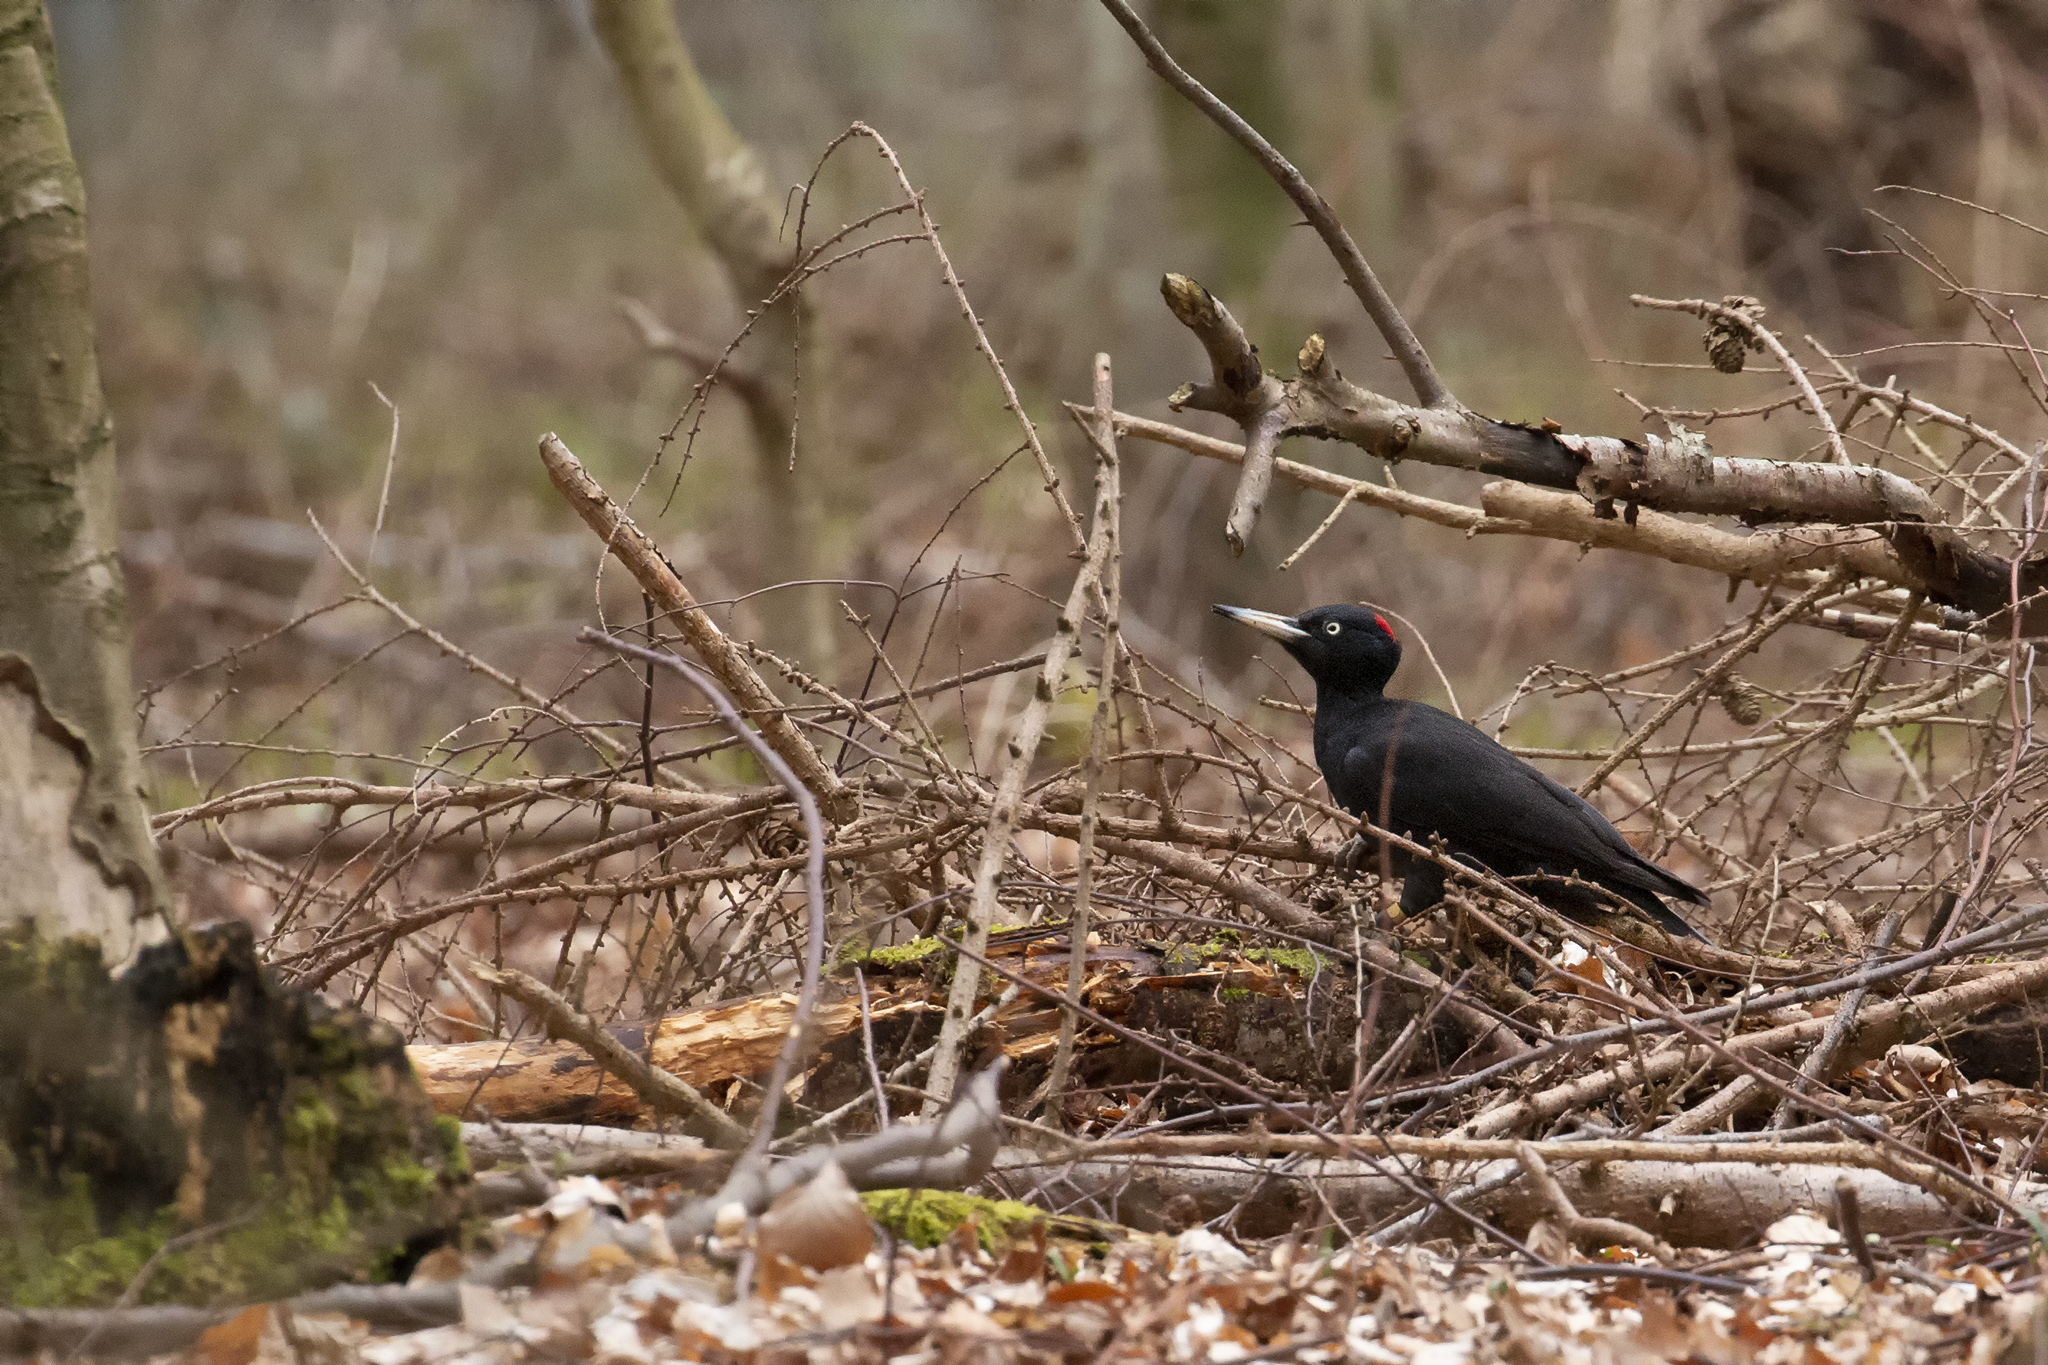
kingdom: Animalia
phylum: Chordata
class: Aves
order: Piciformes
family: Picidae
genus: Dryocopus
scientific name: Dryocopus martius
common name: Black woodpecker
